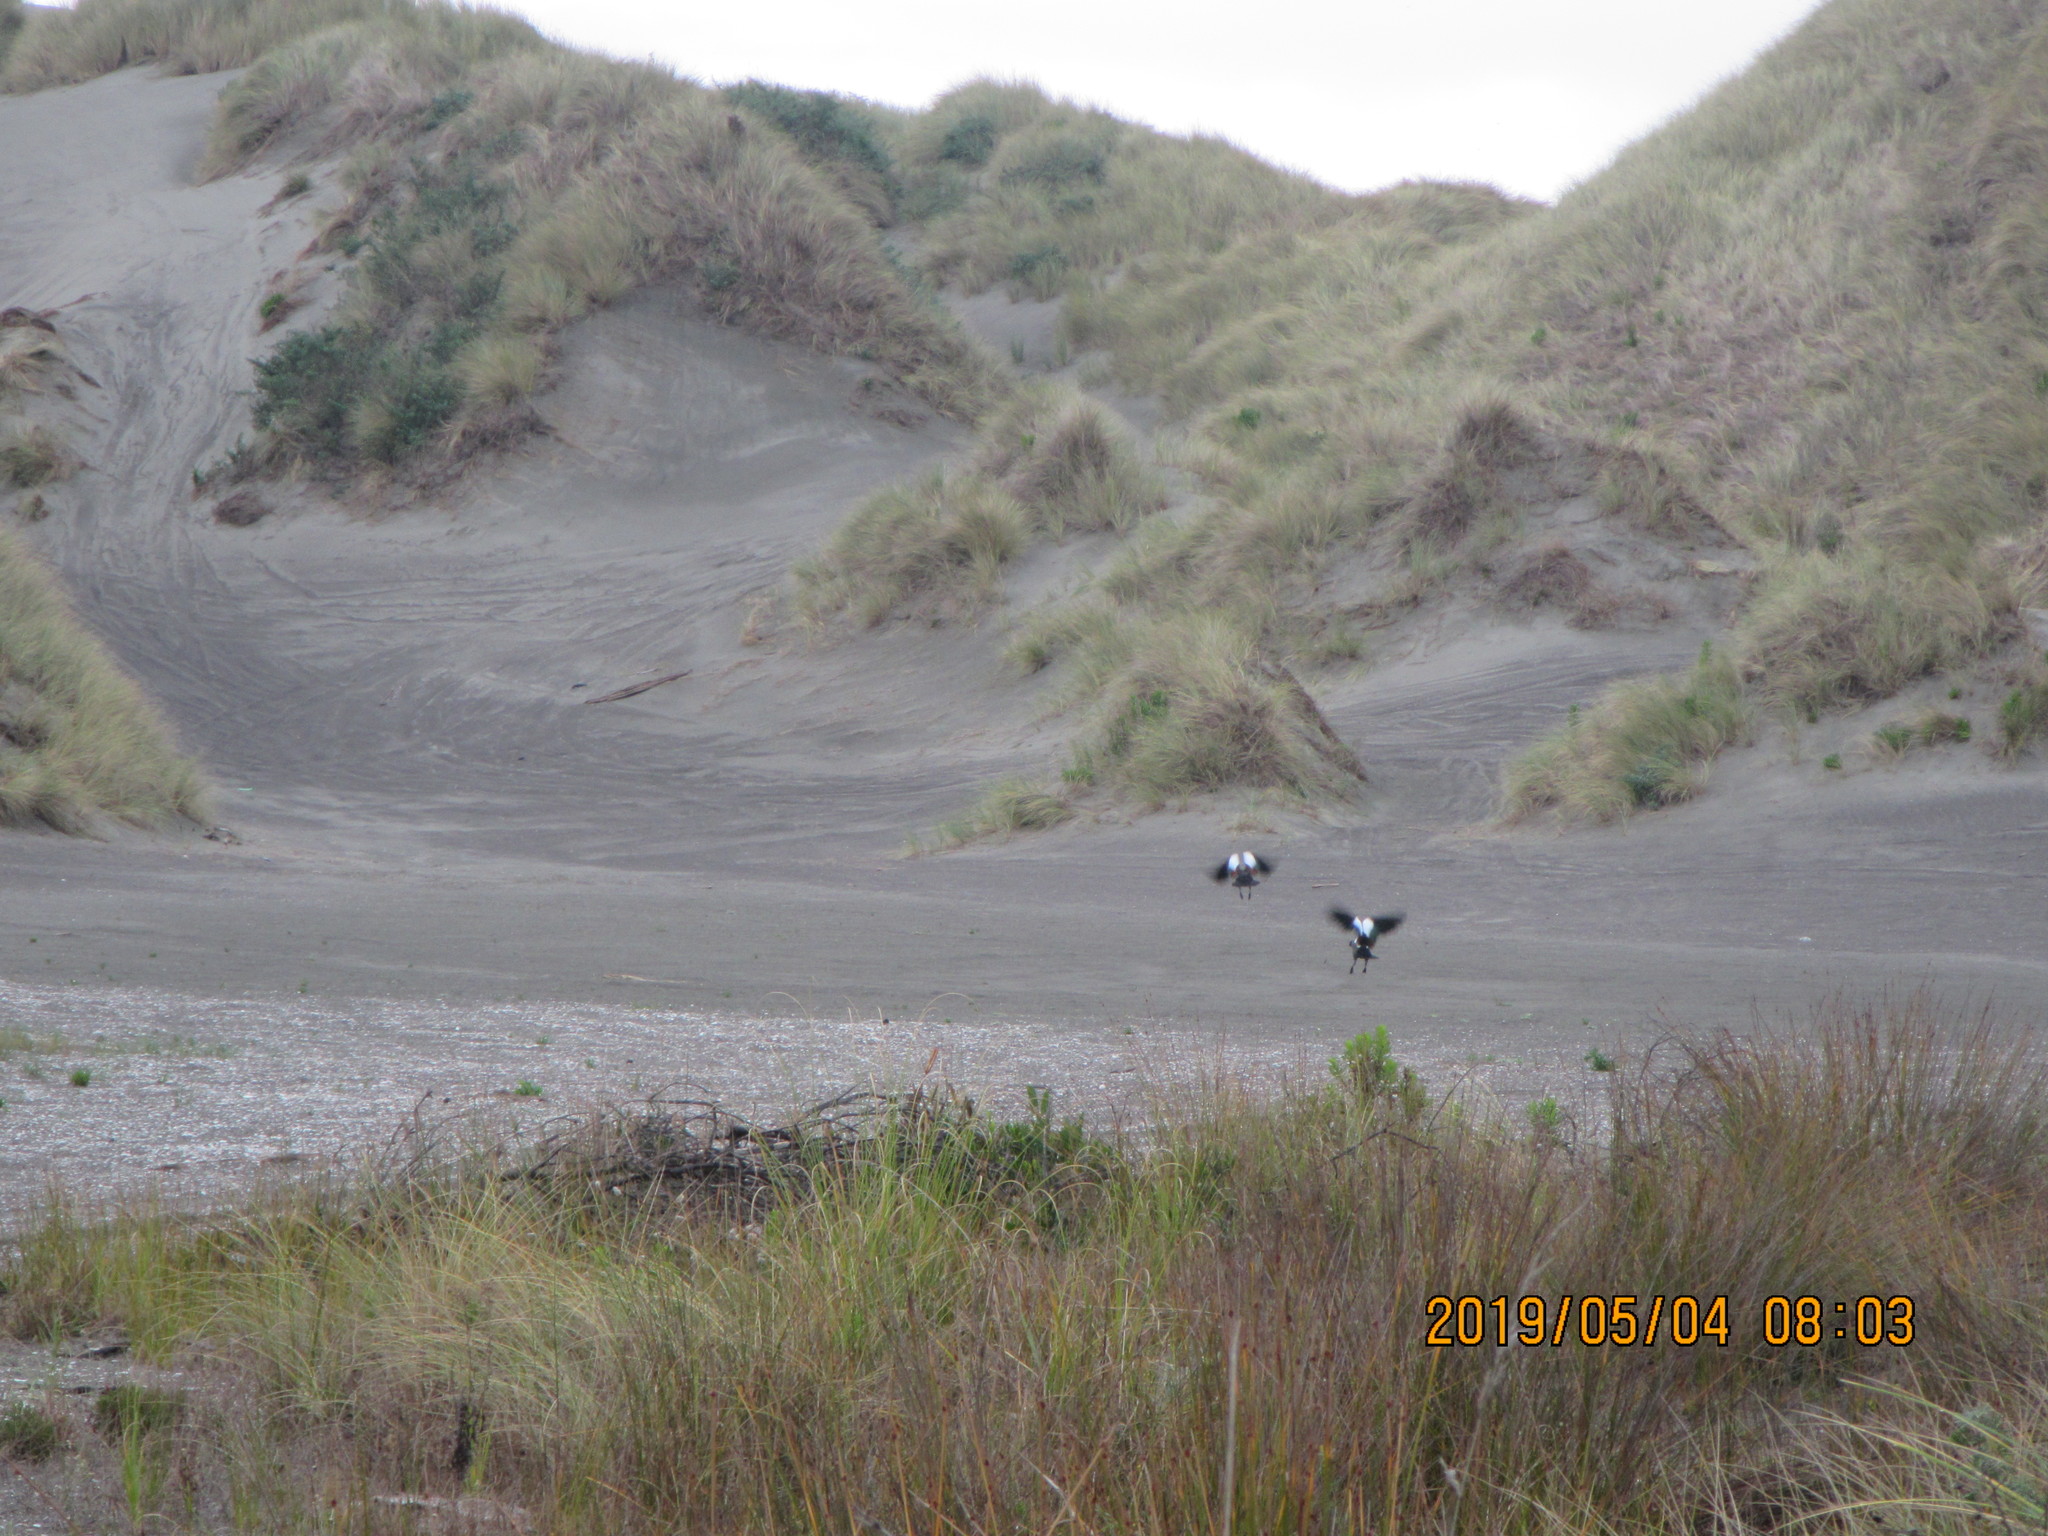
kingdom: Animalia
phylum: Chordata
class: Aves
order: Anseriformes
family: Anatidae
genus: Tadorna
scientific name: Tadorna variegata
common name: Paradise shelduck
